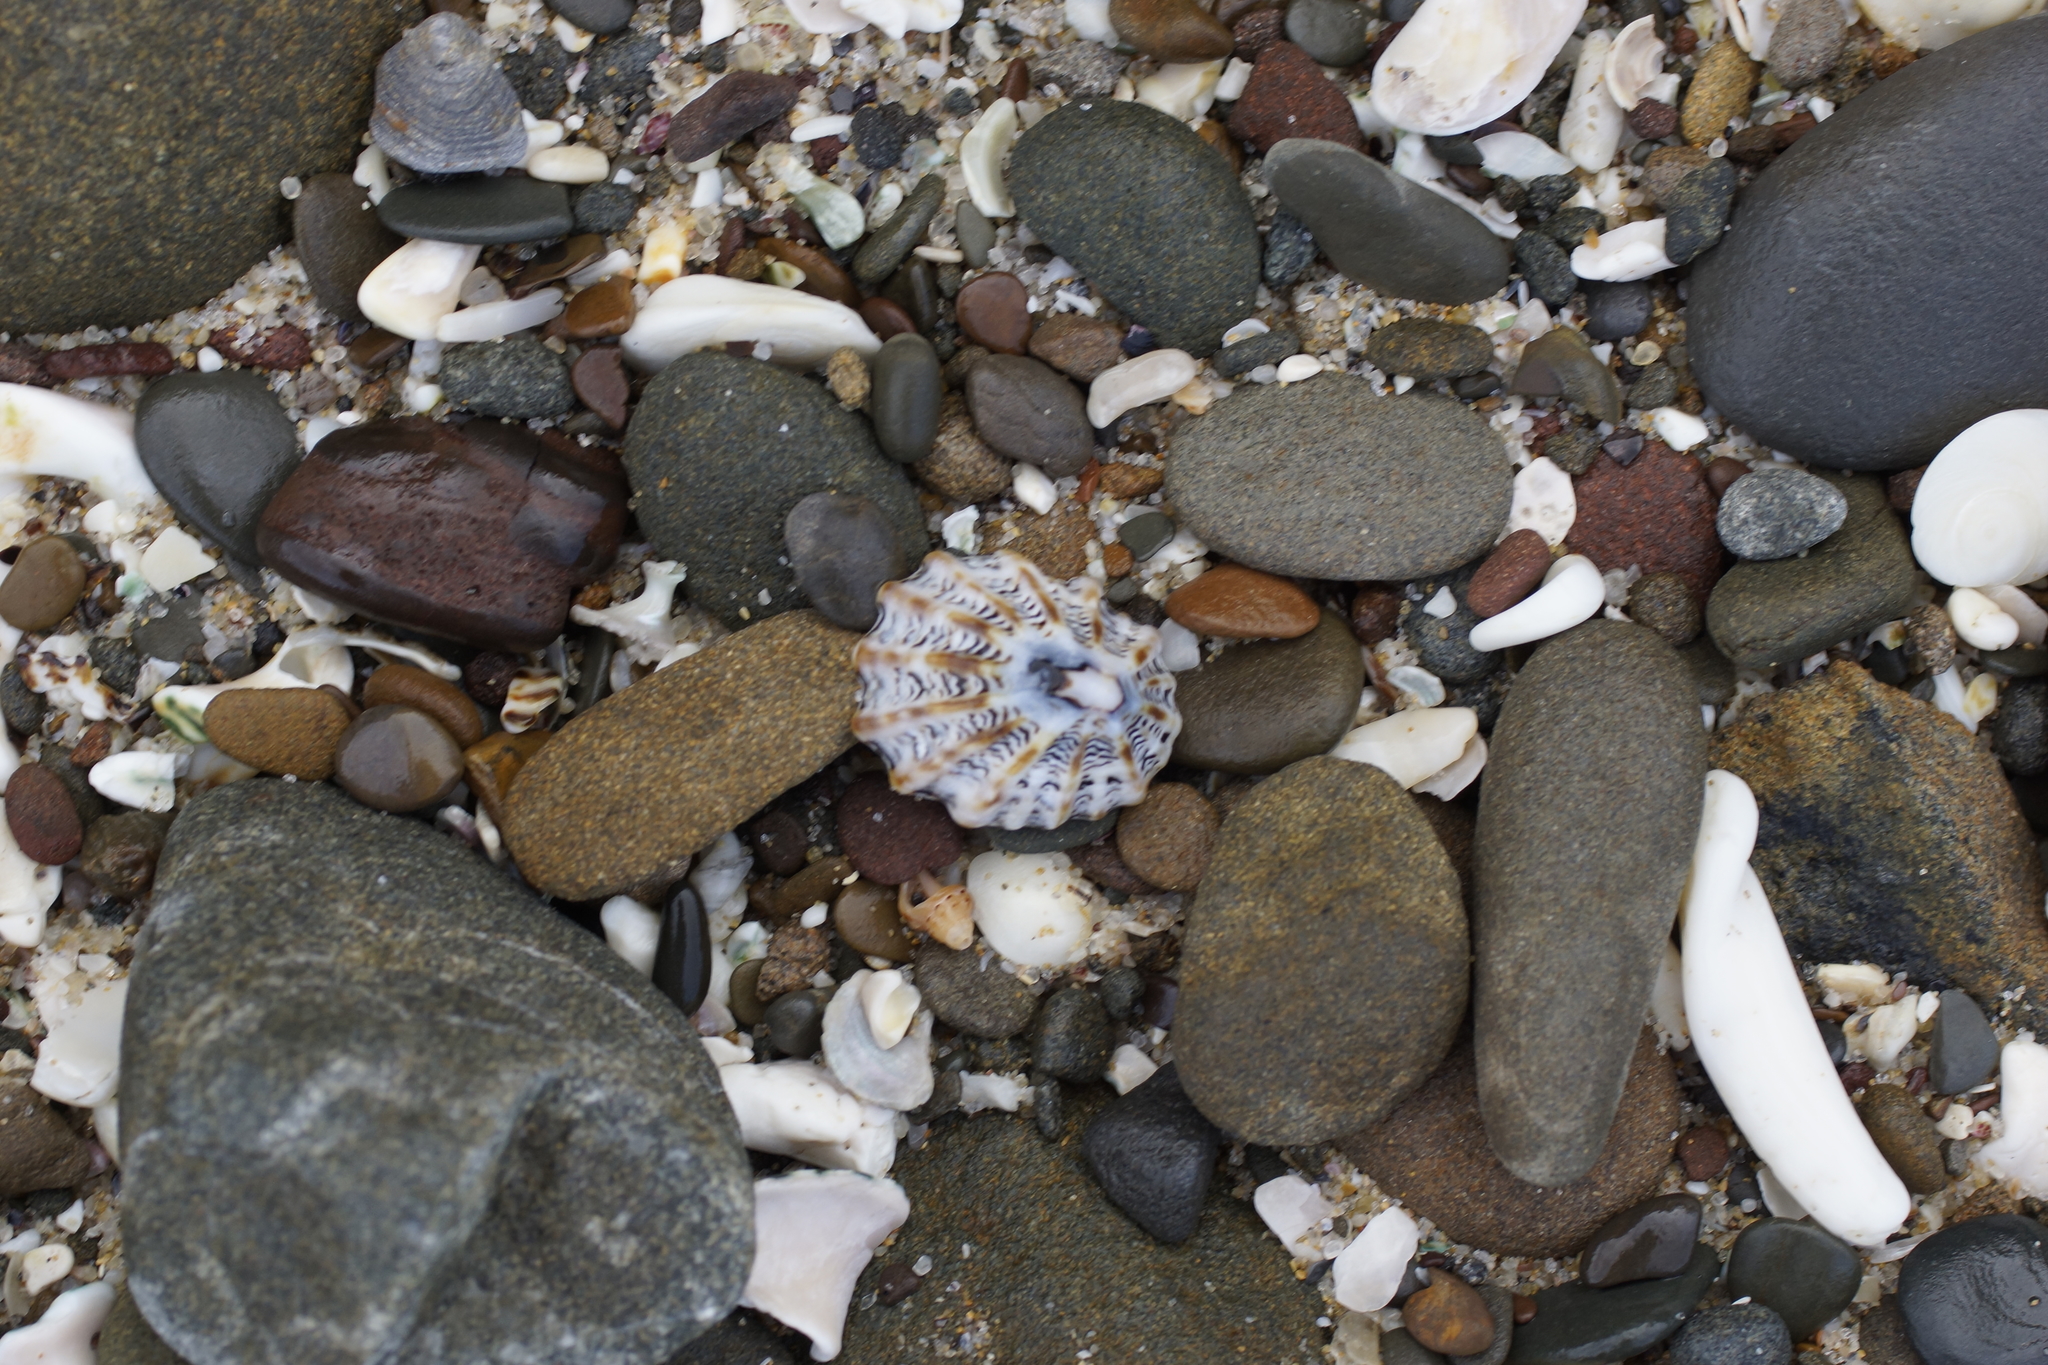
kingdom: Animalia
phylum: Mollusca
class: Gastropoda
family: Lottiidae
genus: Patelloida
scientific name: Patelloida alticostata
